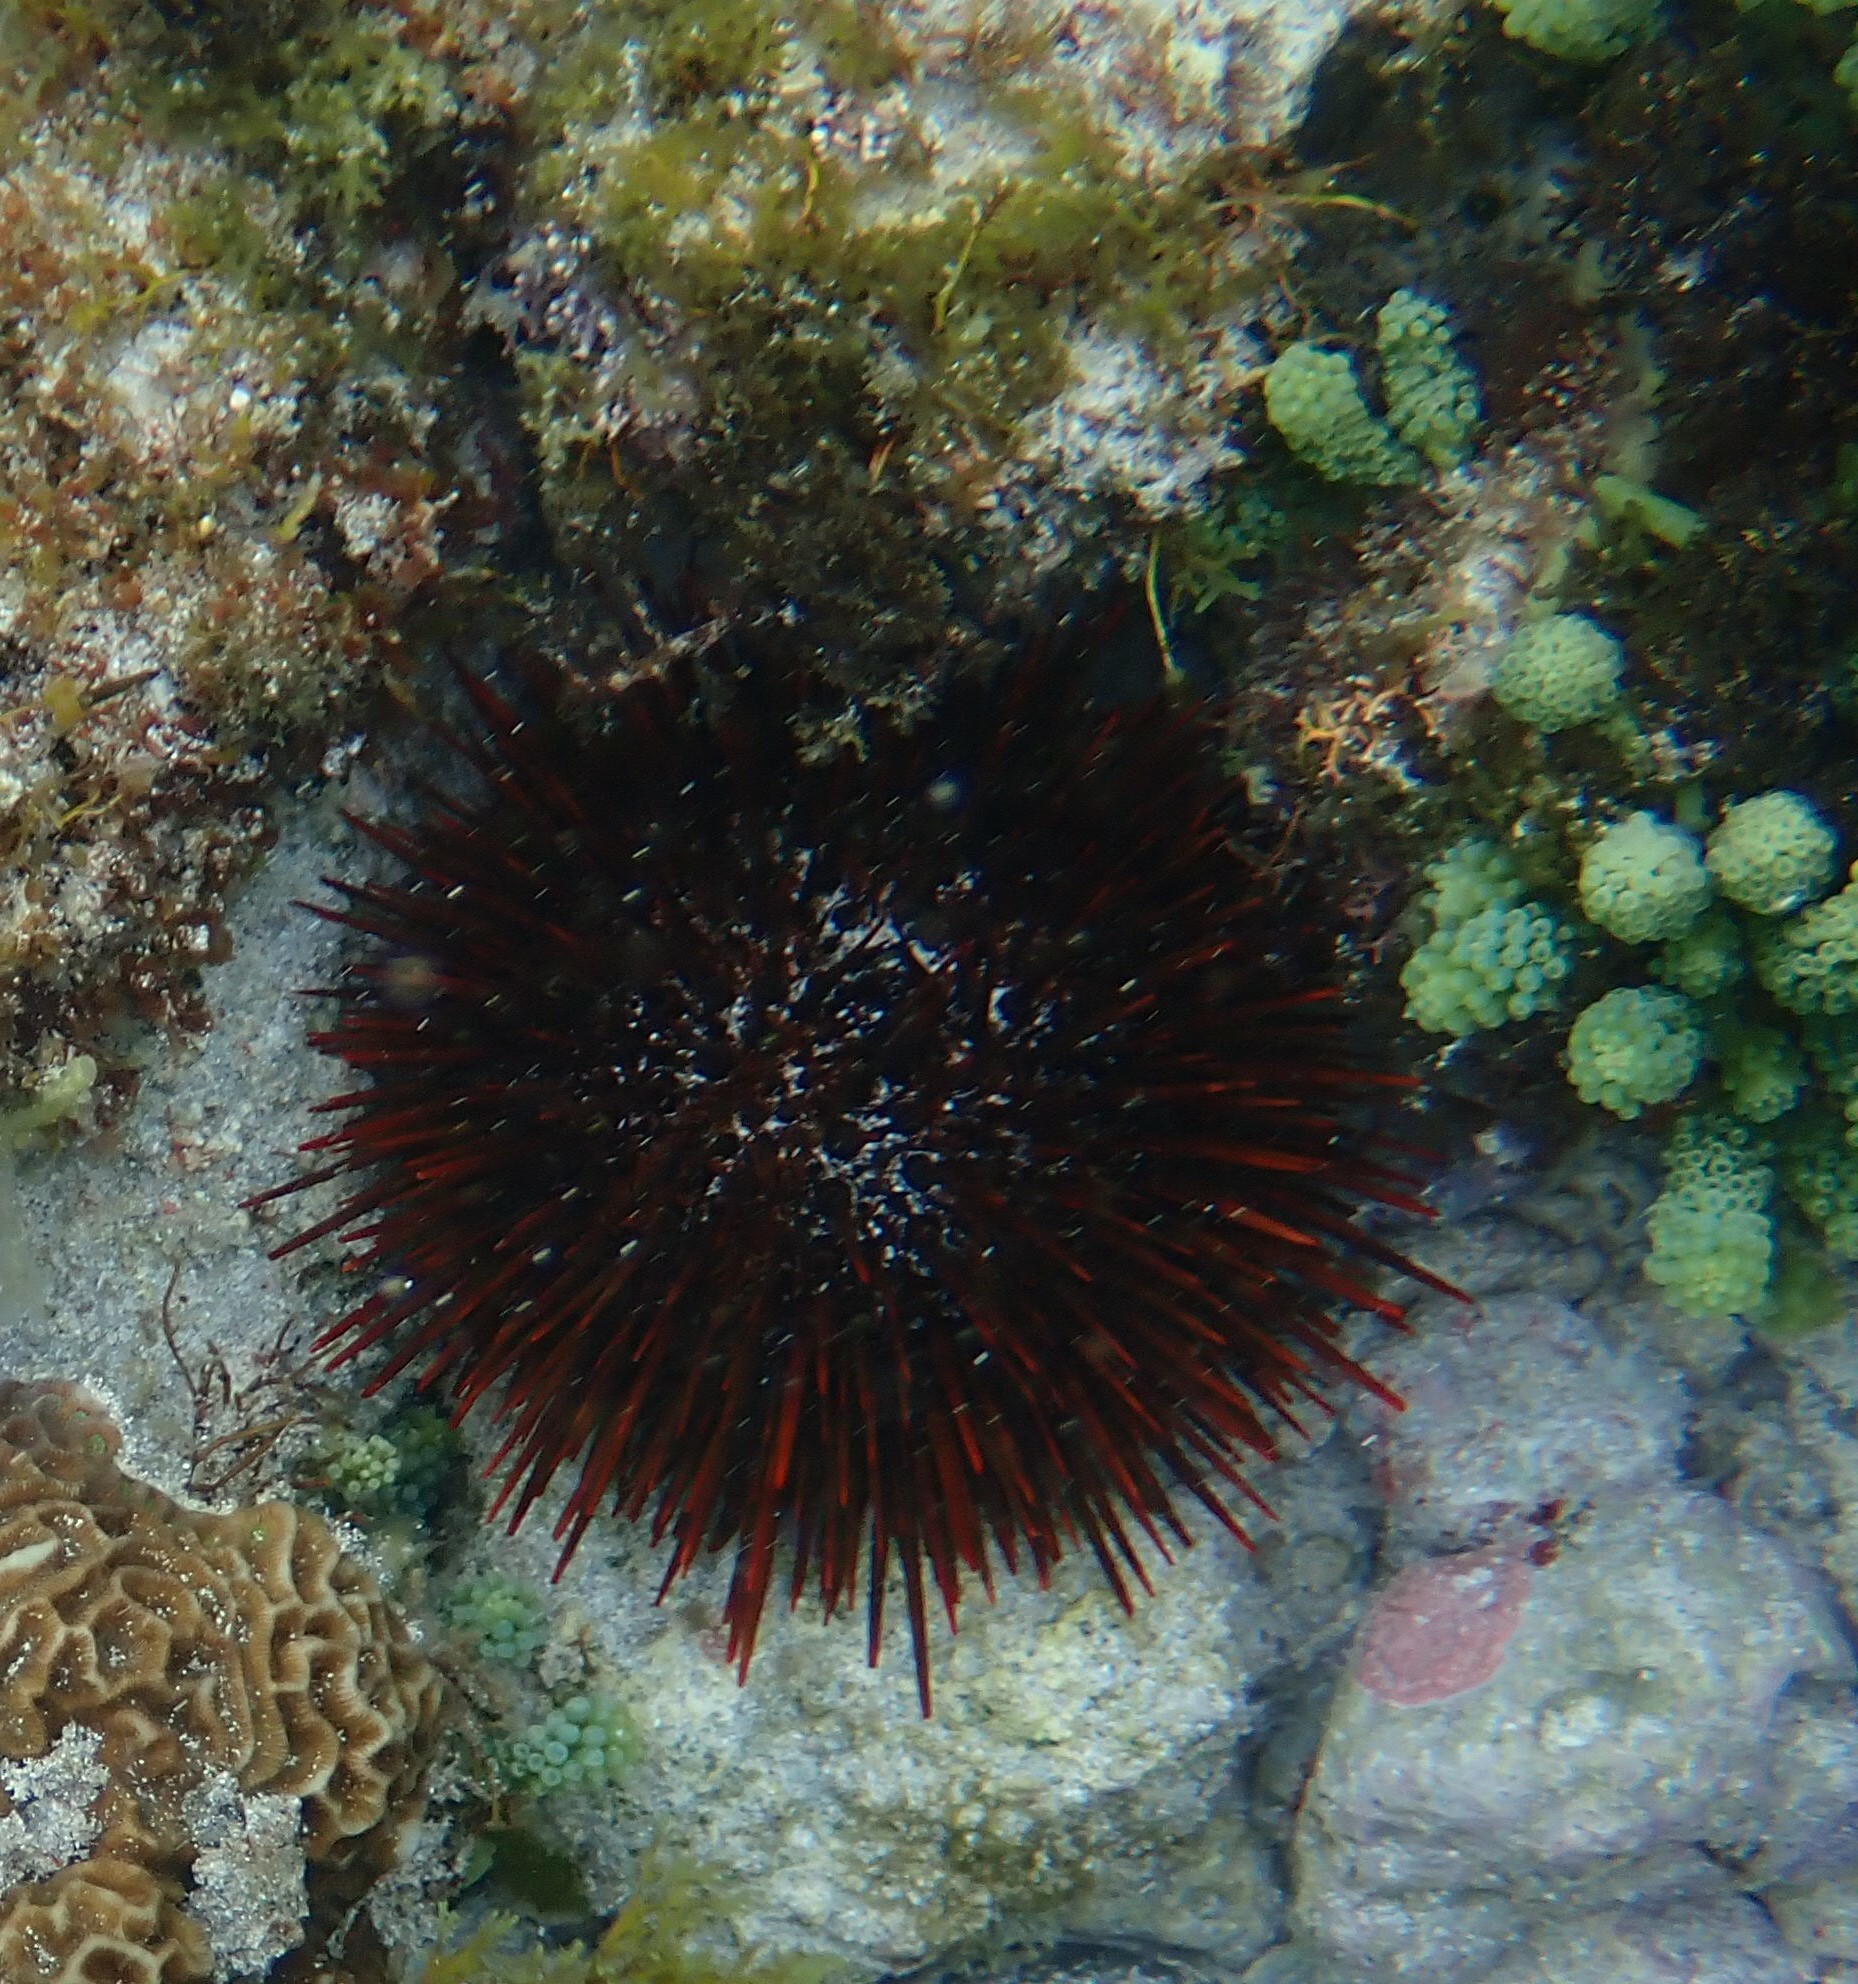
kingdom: Animalia
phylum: Echinodermata
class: Echinoidea
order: Camarodonta
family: Echinometridae
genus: Heliocidaris
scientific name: Heliocidaris tuberculata
